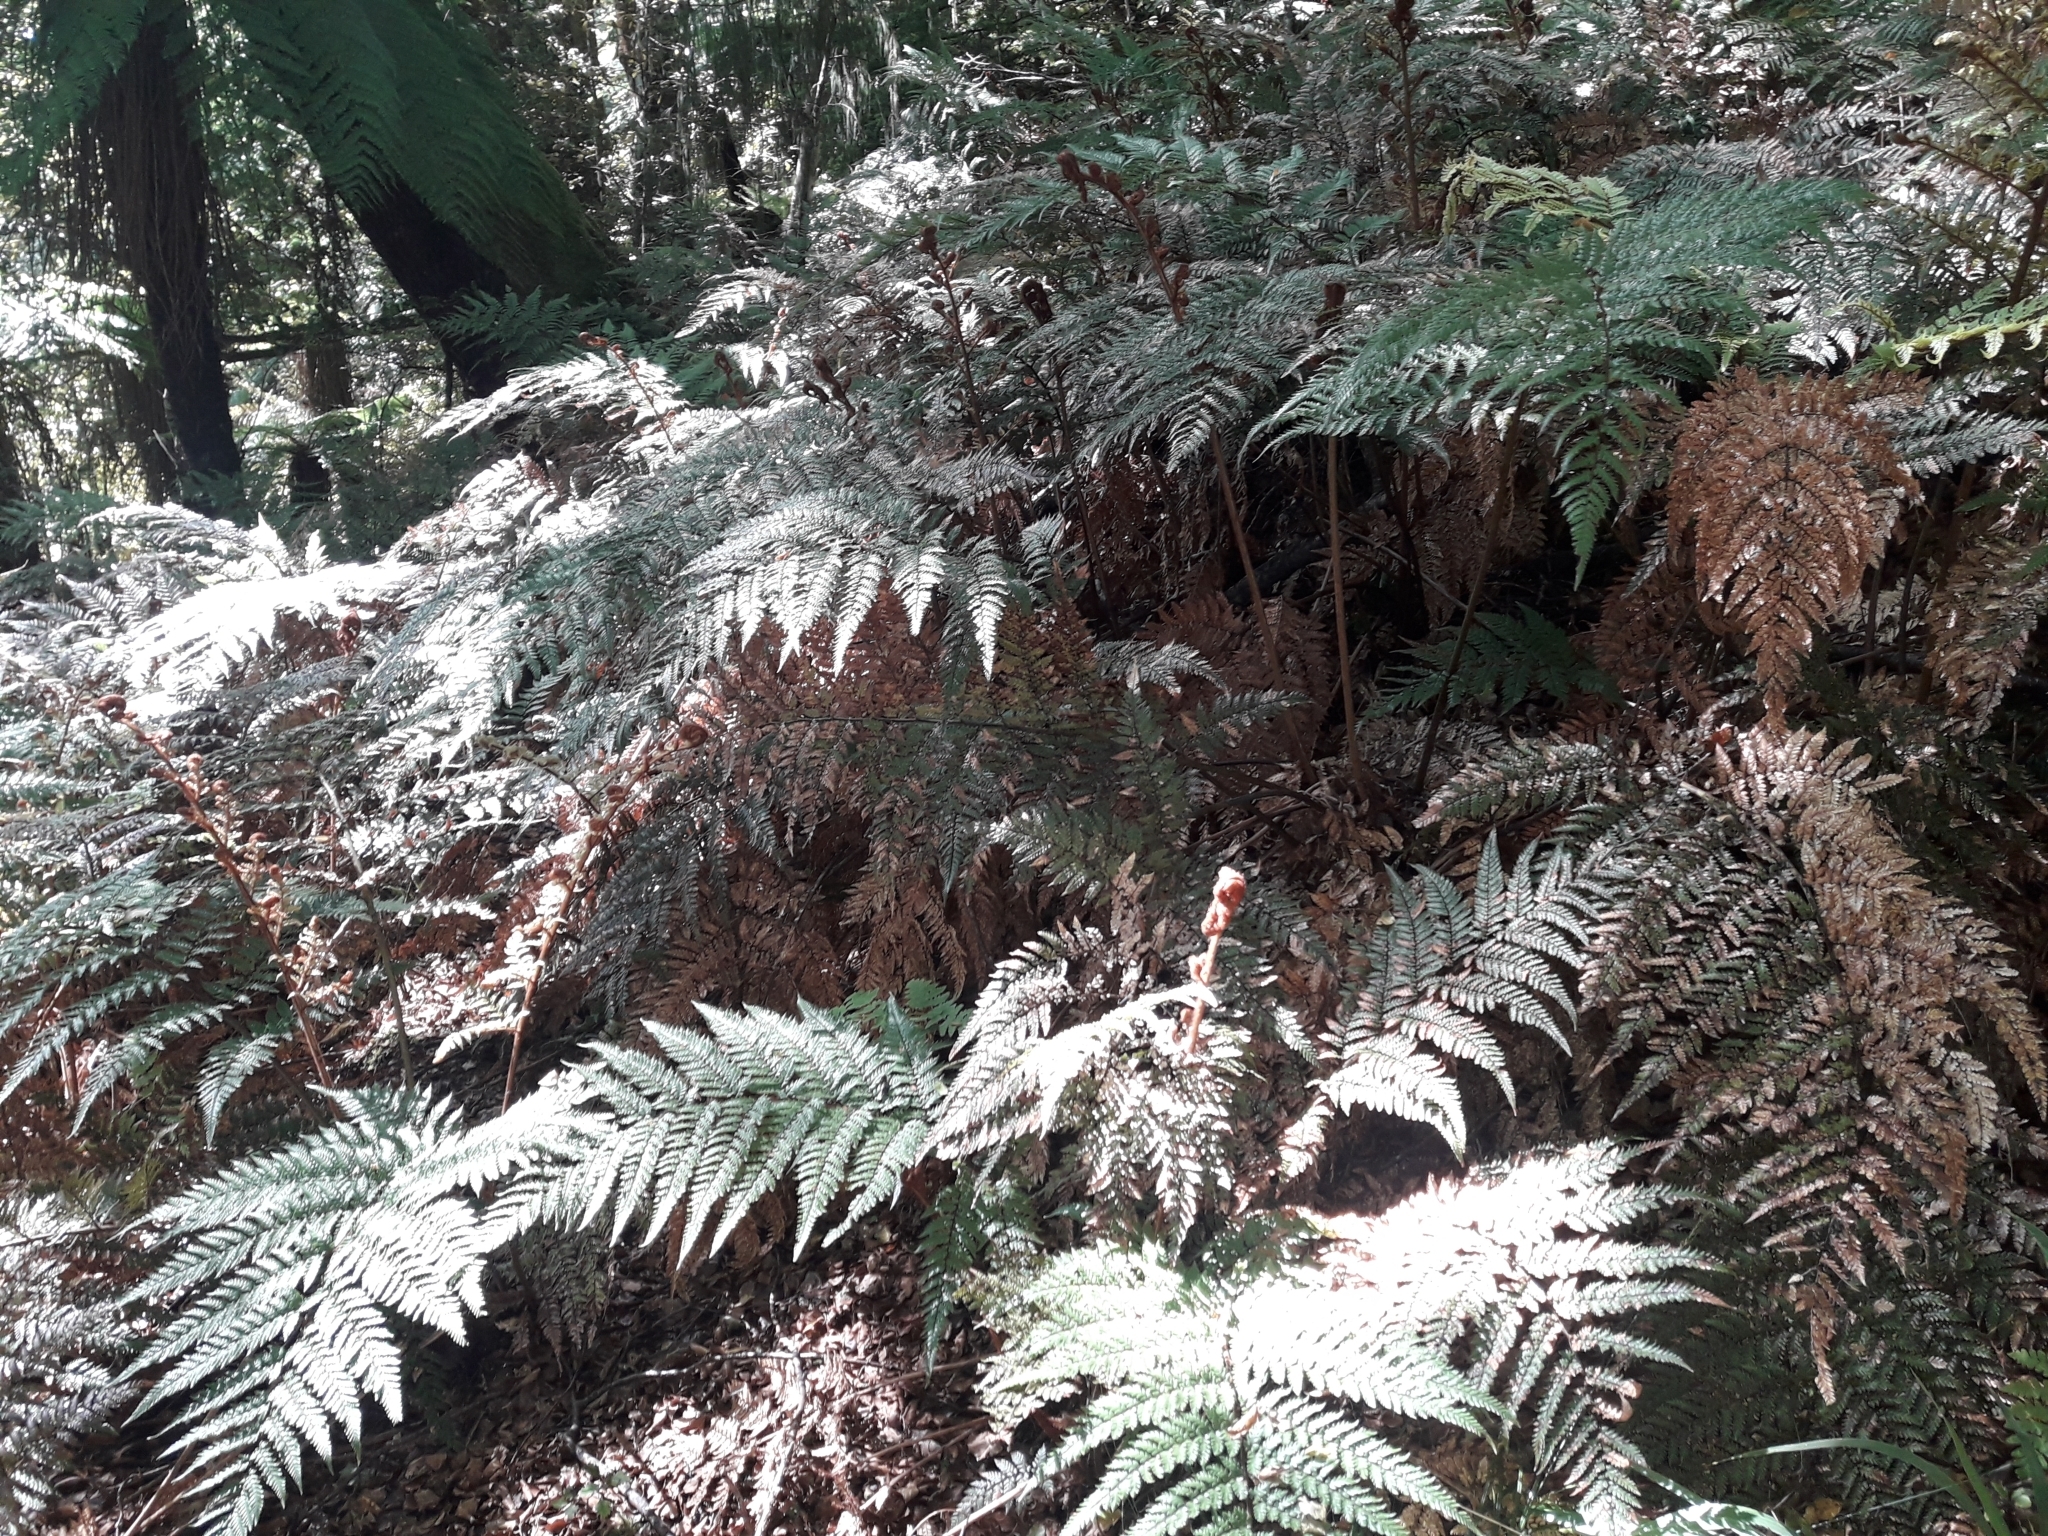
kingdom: Plantae
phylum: Tracheophyta
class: Polypodiopsida
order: Cyatheales
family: Dicksoniaceae
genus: Dicksonia
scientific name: Dicksonia lanata
